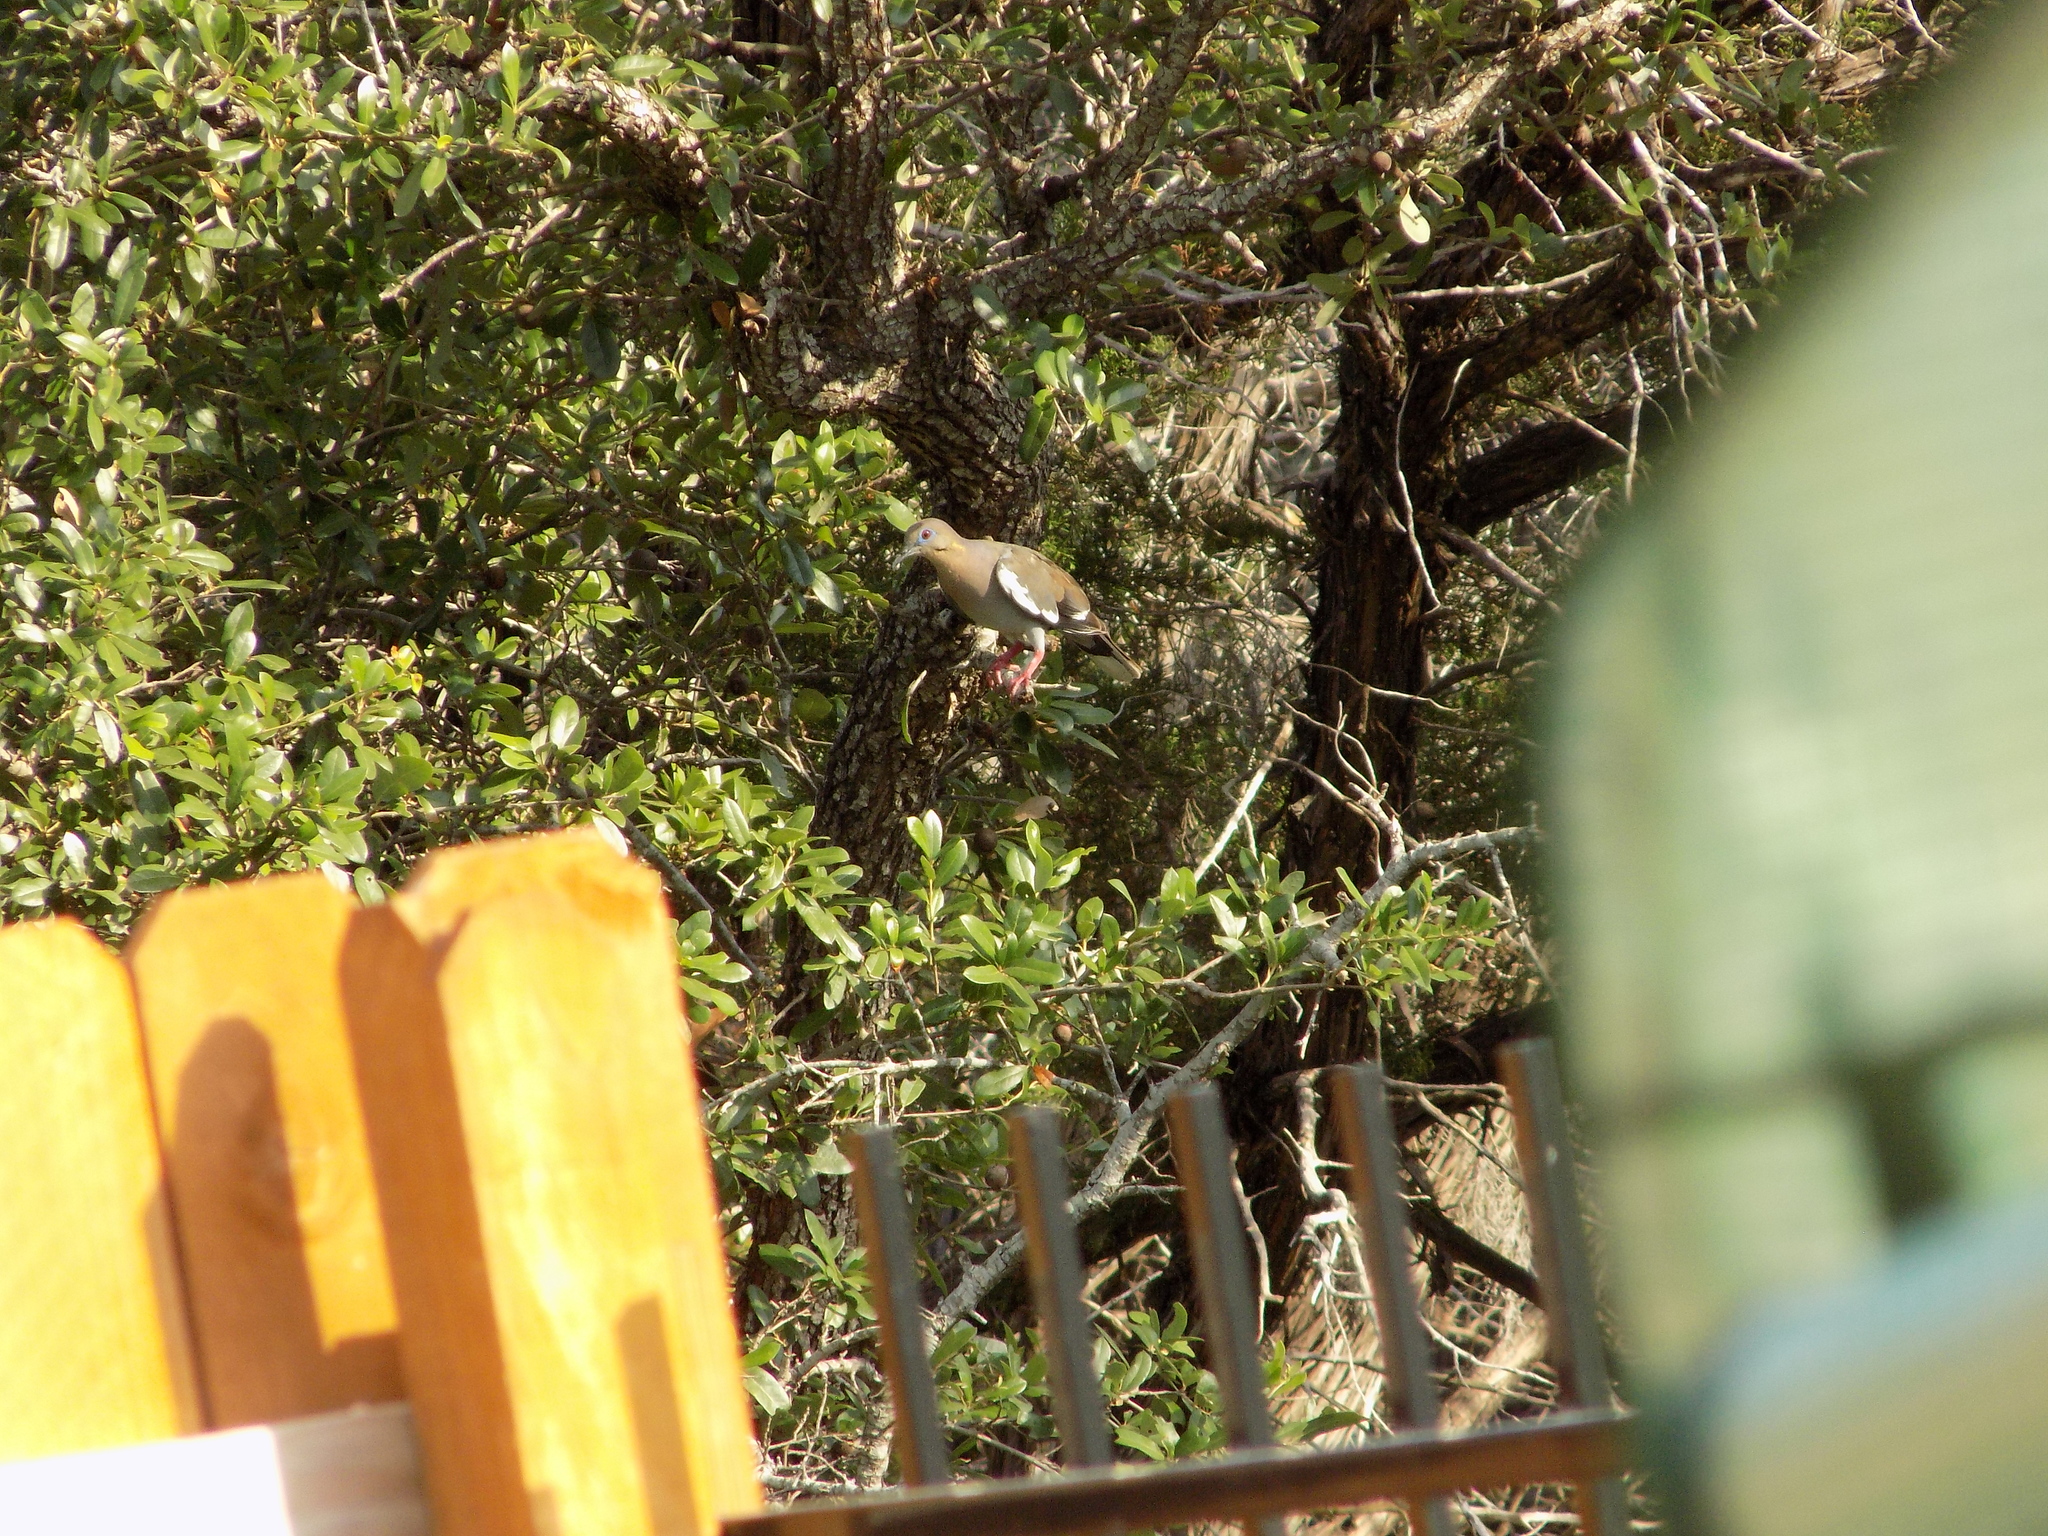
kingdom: Animalia
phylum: Chordata
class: Aves
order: Columbiformes
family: Columbidae
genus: Zenaida
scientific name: Zenaida asiatica
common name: White-winged dove
